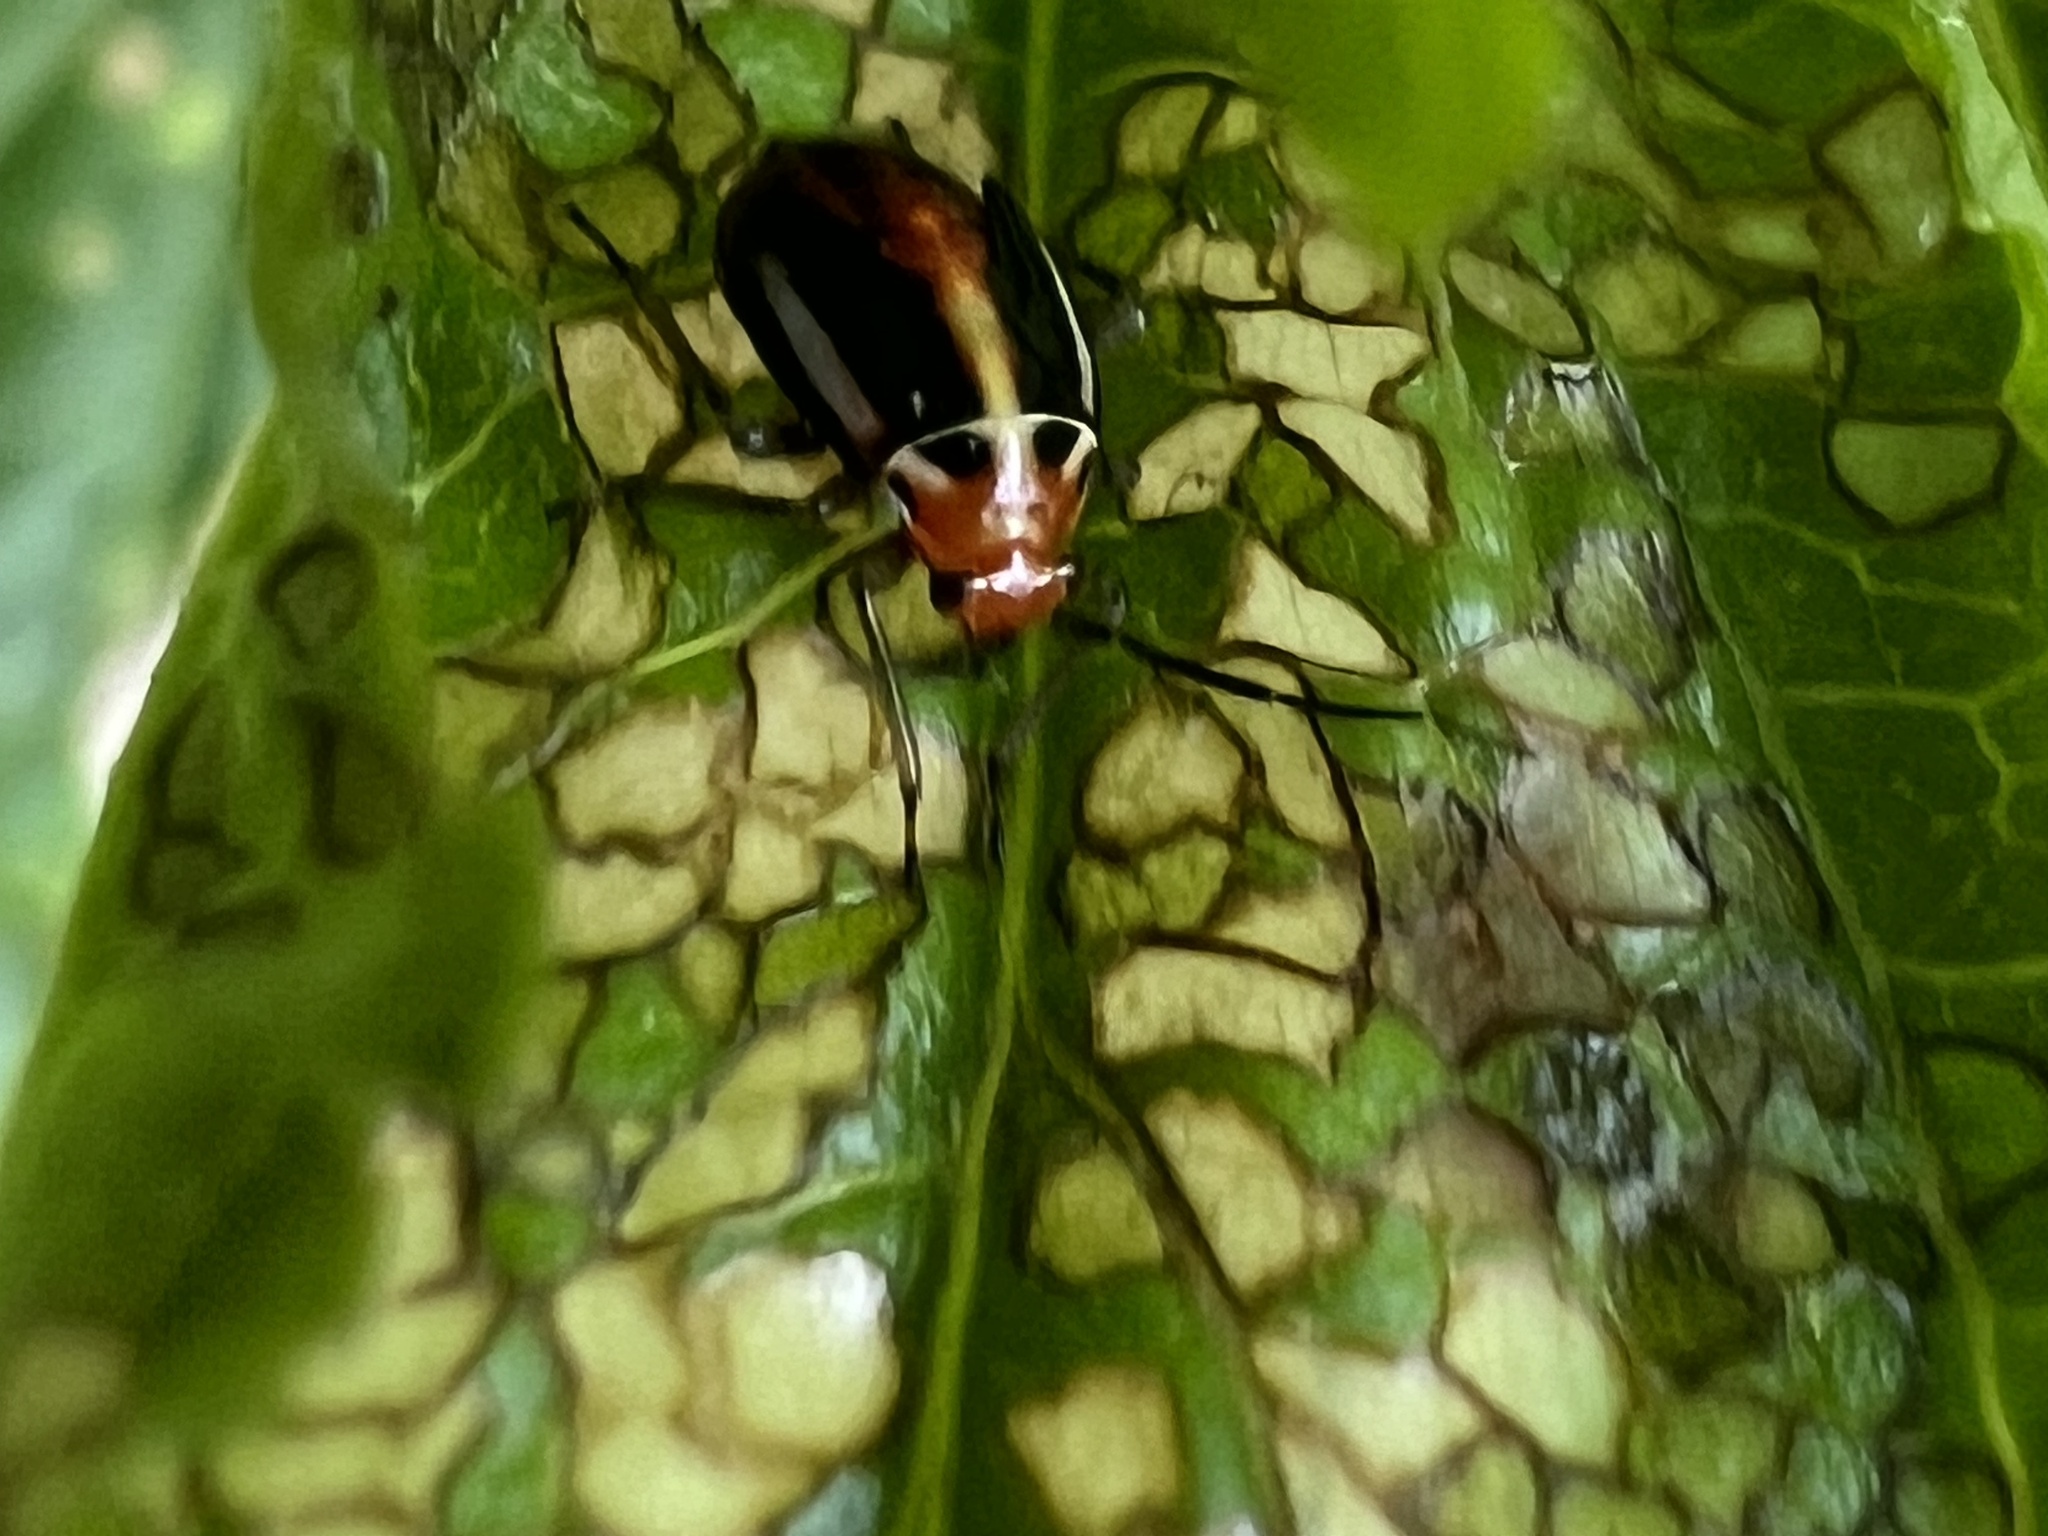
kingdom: Animalia
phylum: Arthropoda
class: Insecta
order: Hemiptera
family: Miridae
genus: Poecilocapsus
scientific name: Poecilocapsus lineatus
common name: Four-lined plant bug
